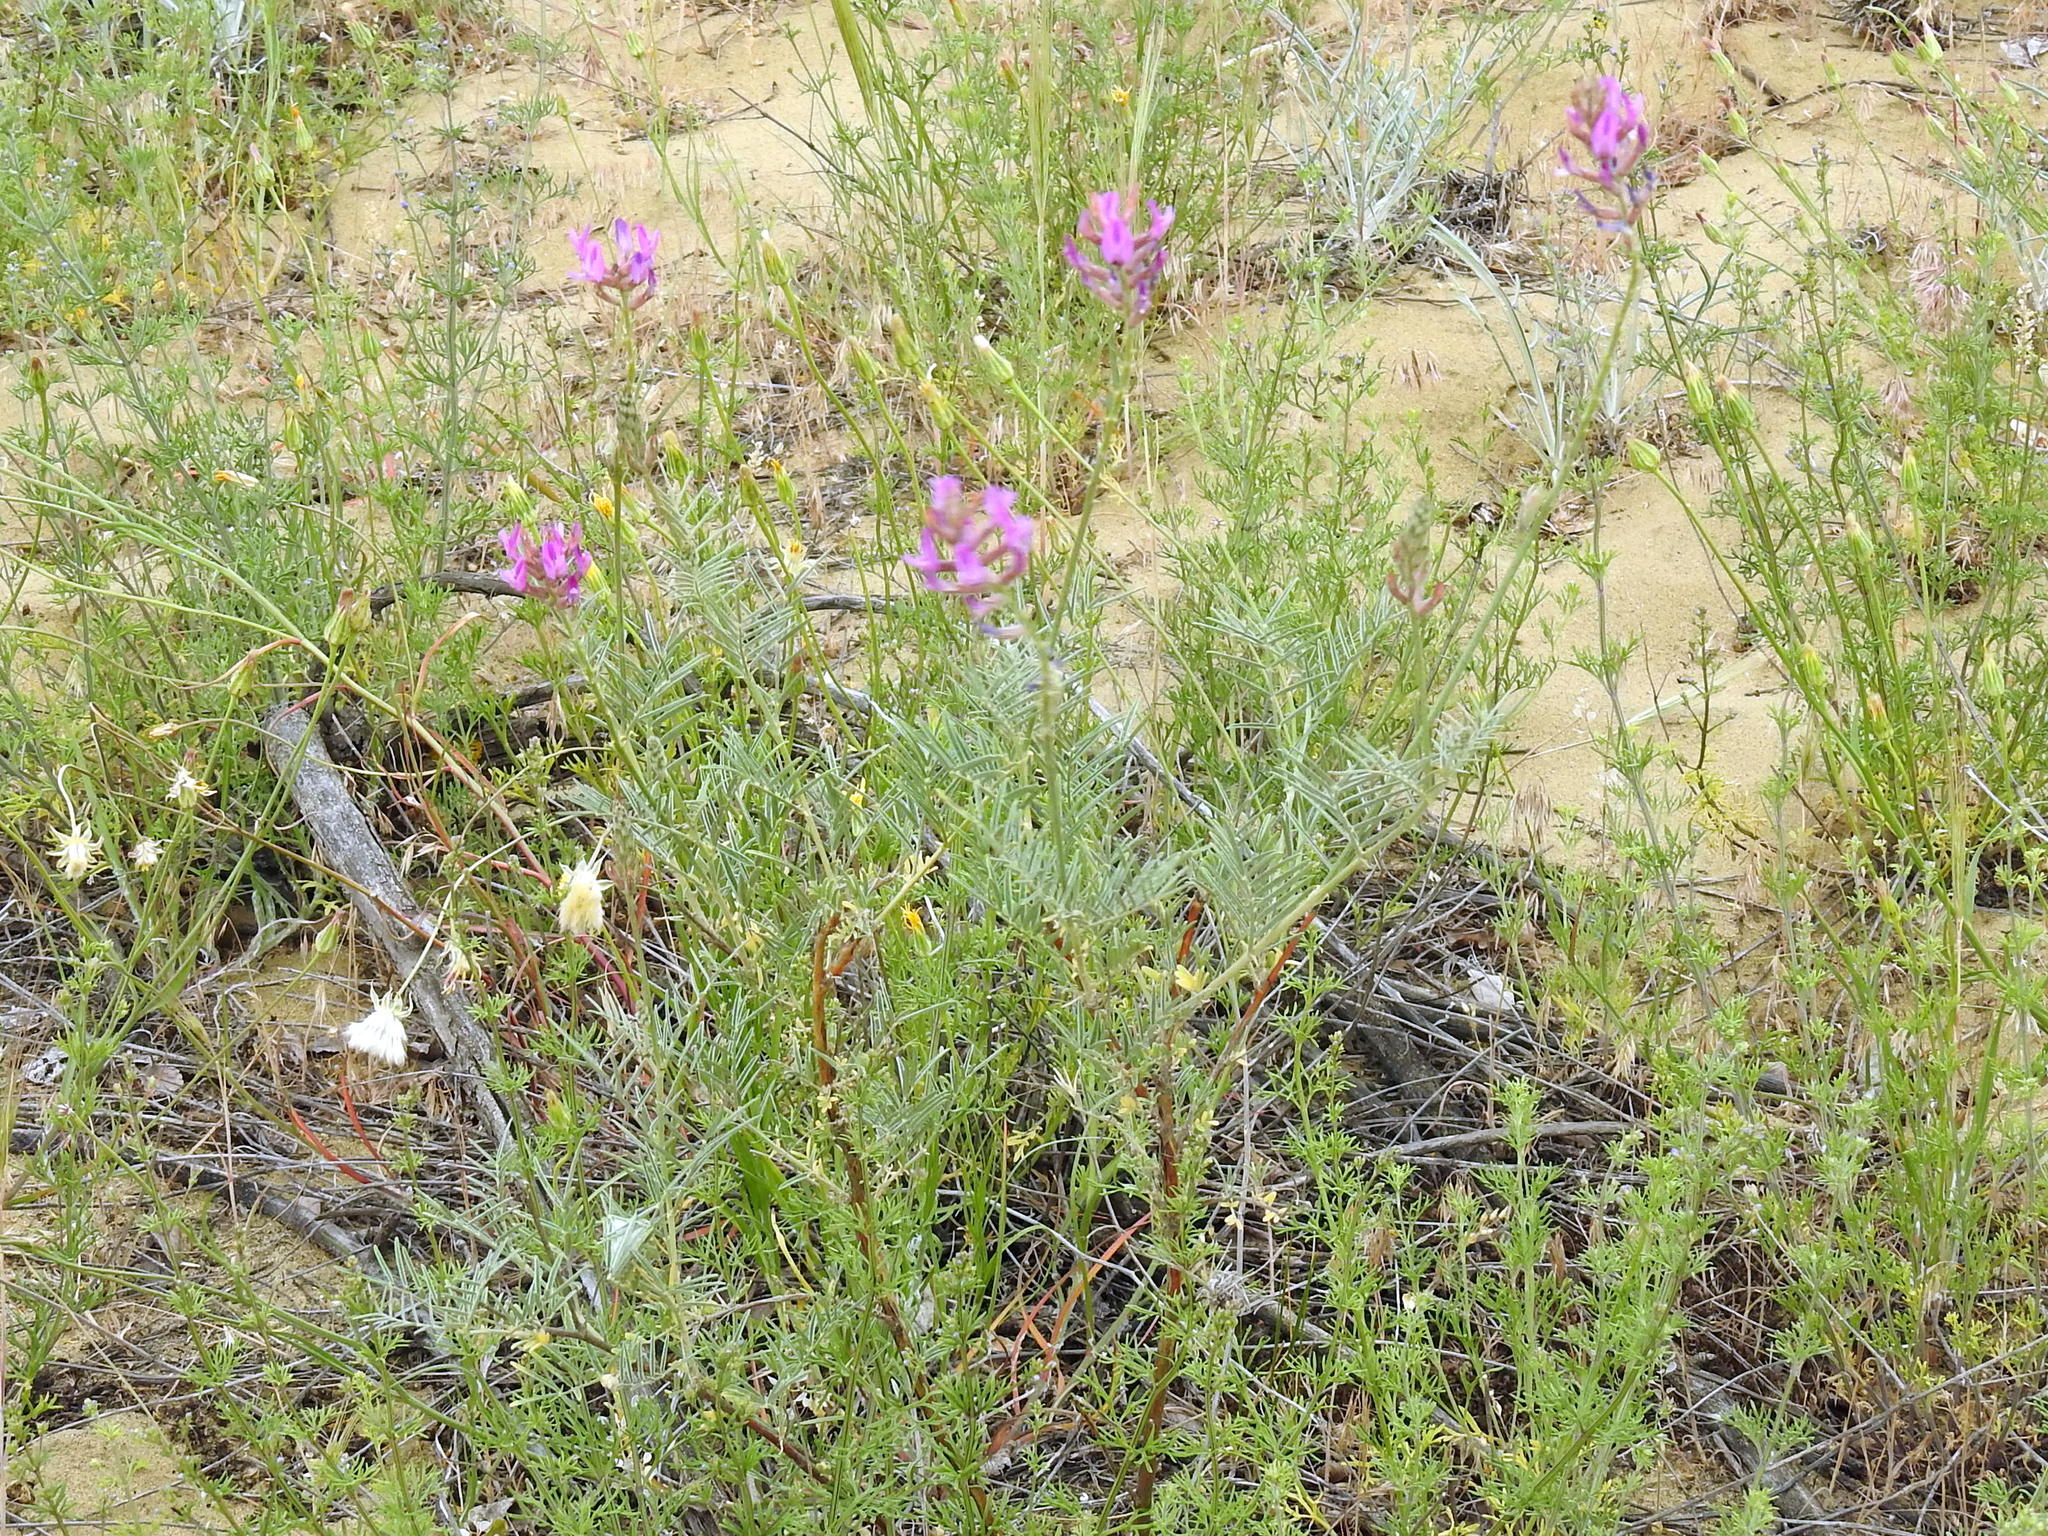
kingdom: Plantae
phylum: Tracheophyta
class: Magnoliopsida
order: Fabales
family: Fabaceae
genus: Astragalus
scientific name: Astragalus brachylobus
